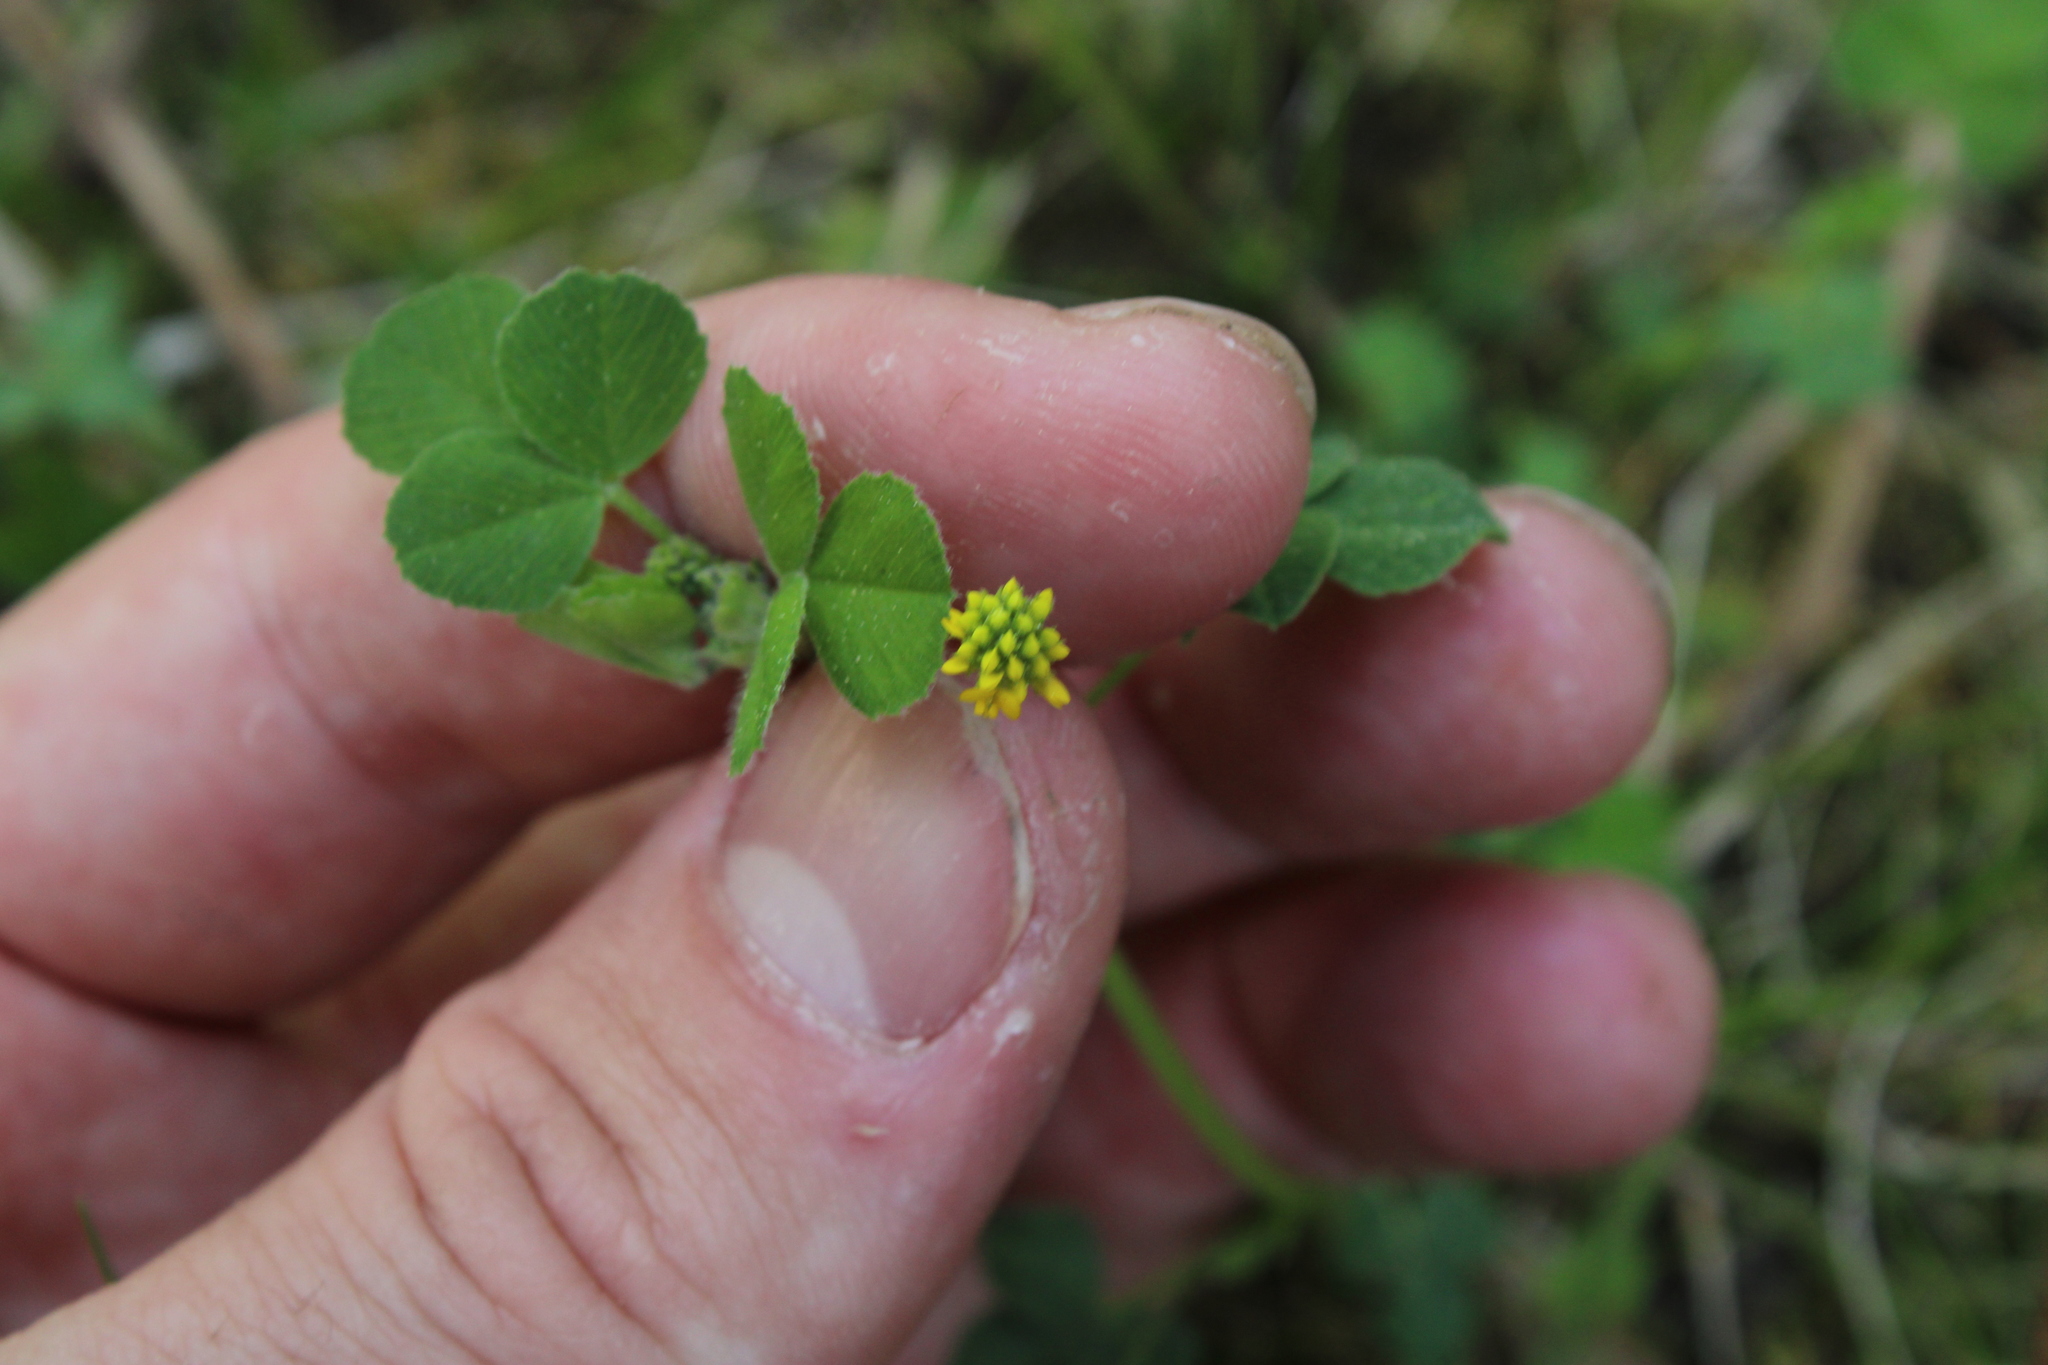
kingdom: Plantae
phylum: Tracheophyta
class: Magnoliopsida
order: Fabales
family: Fabaceae
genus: Medicago
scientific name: Medicago lupulina
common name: Black medick
